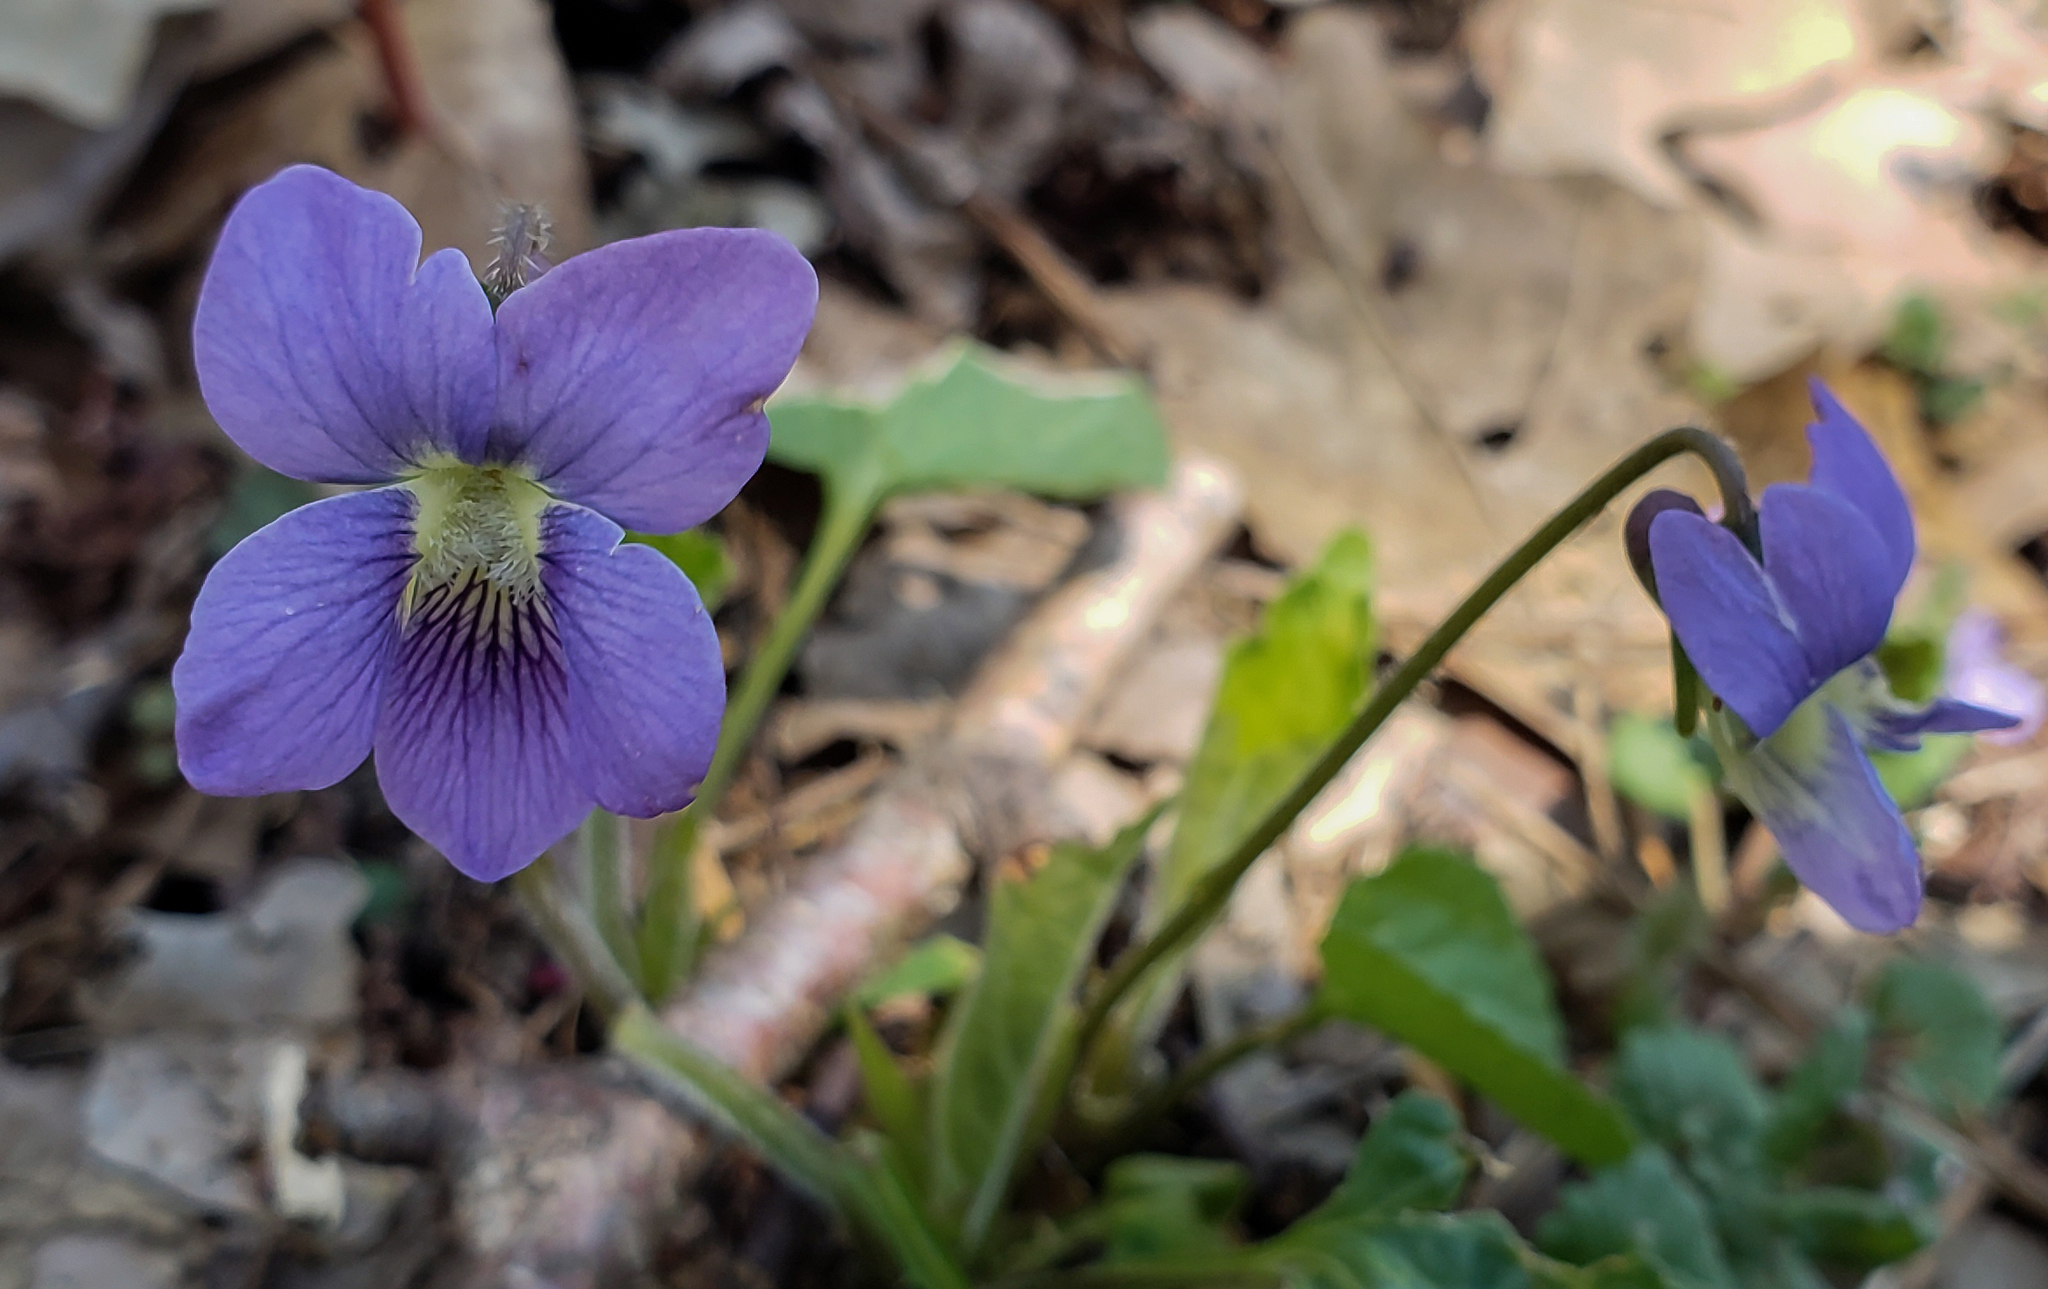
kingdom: Plantae
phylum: Tracheophyta
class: Magnoliopsida
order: Malpighiales
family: Violaceae
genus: Viola
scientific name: Viola sororia
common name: Dooryard violet
